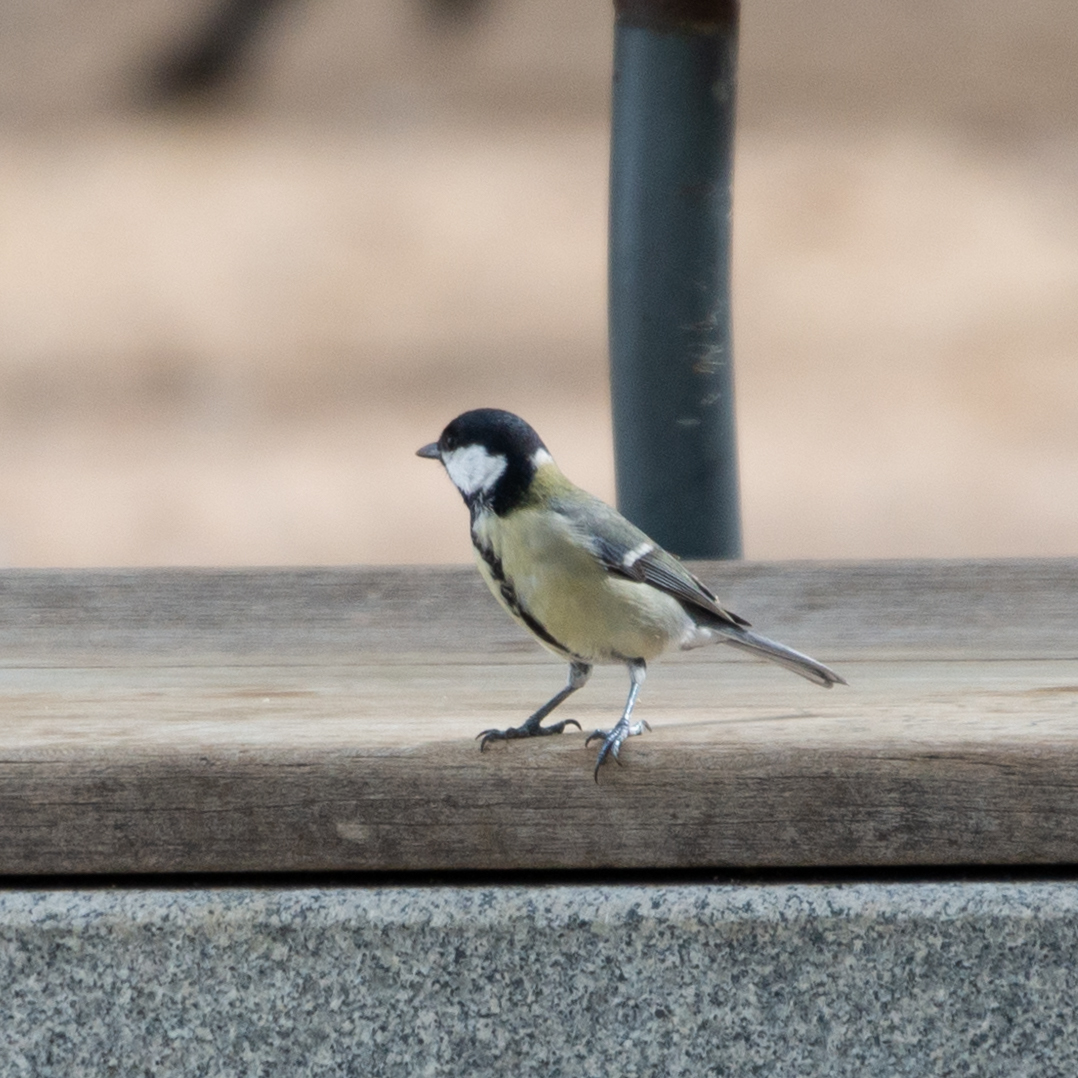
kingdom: Animalia
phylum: Chordata
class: Aves
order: Passeriformes
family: Paridae
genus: Parus
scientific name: Parus major
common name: Great tit
